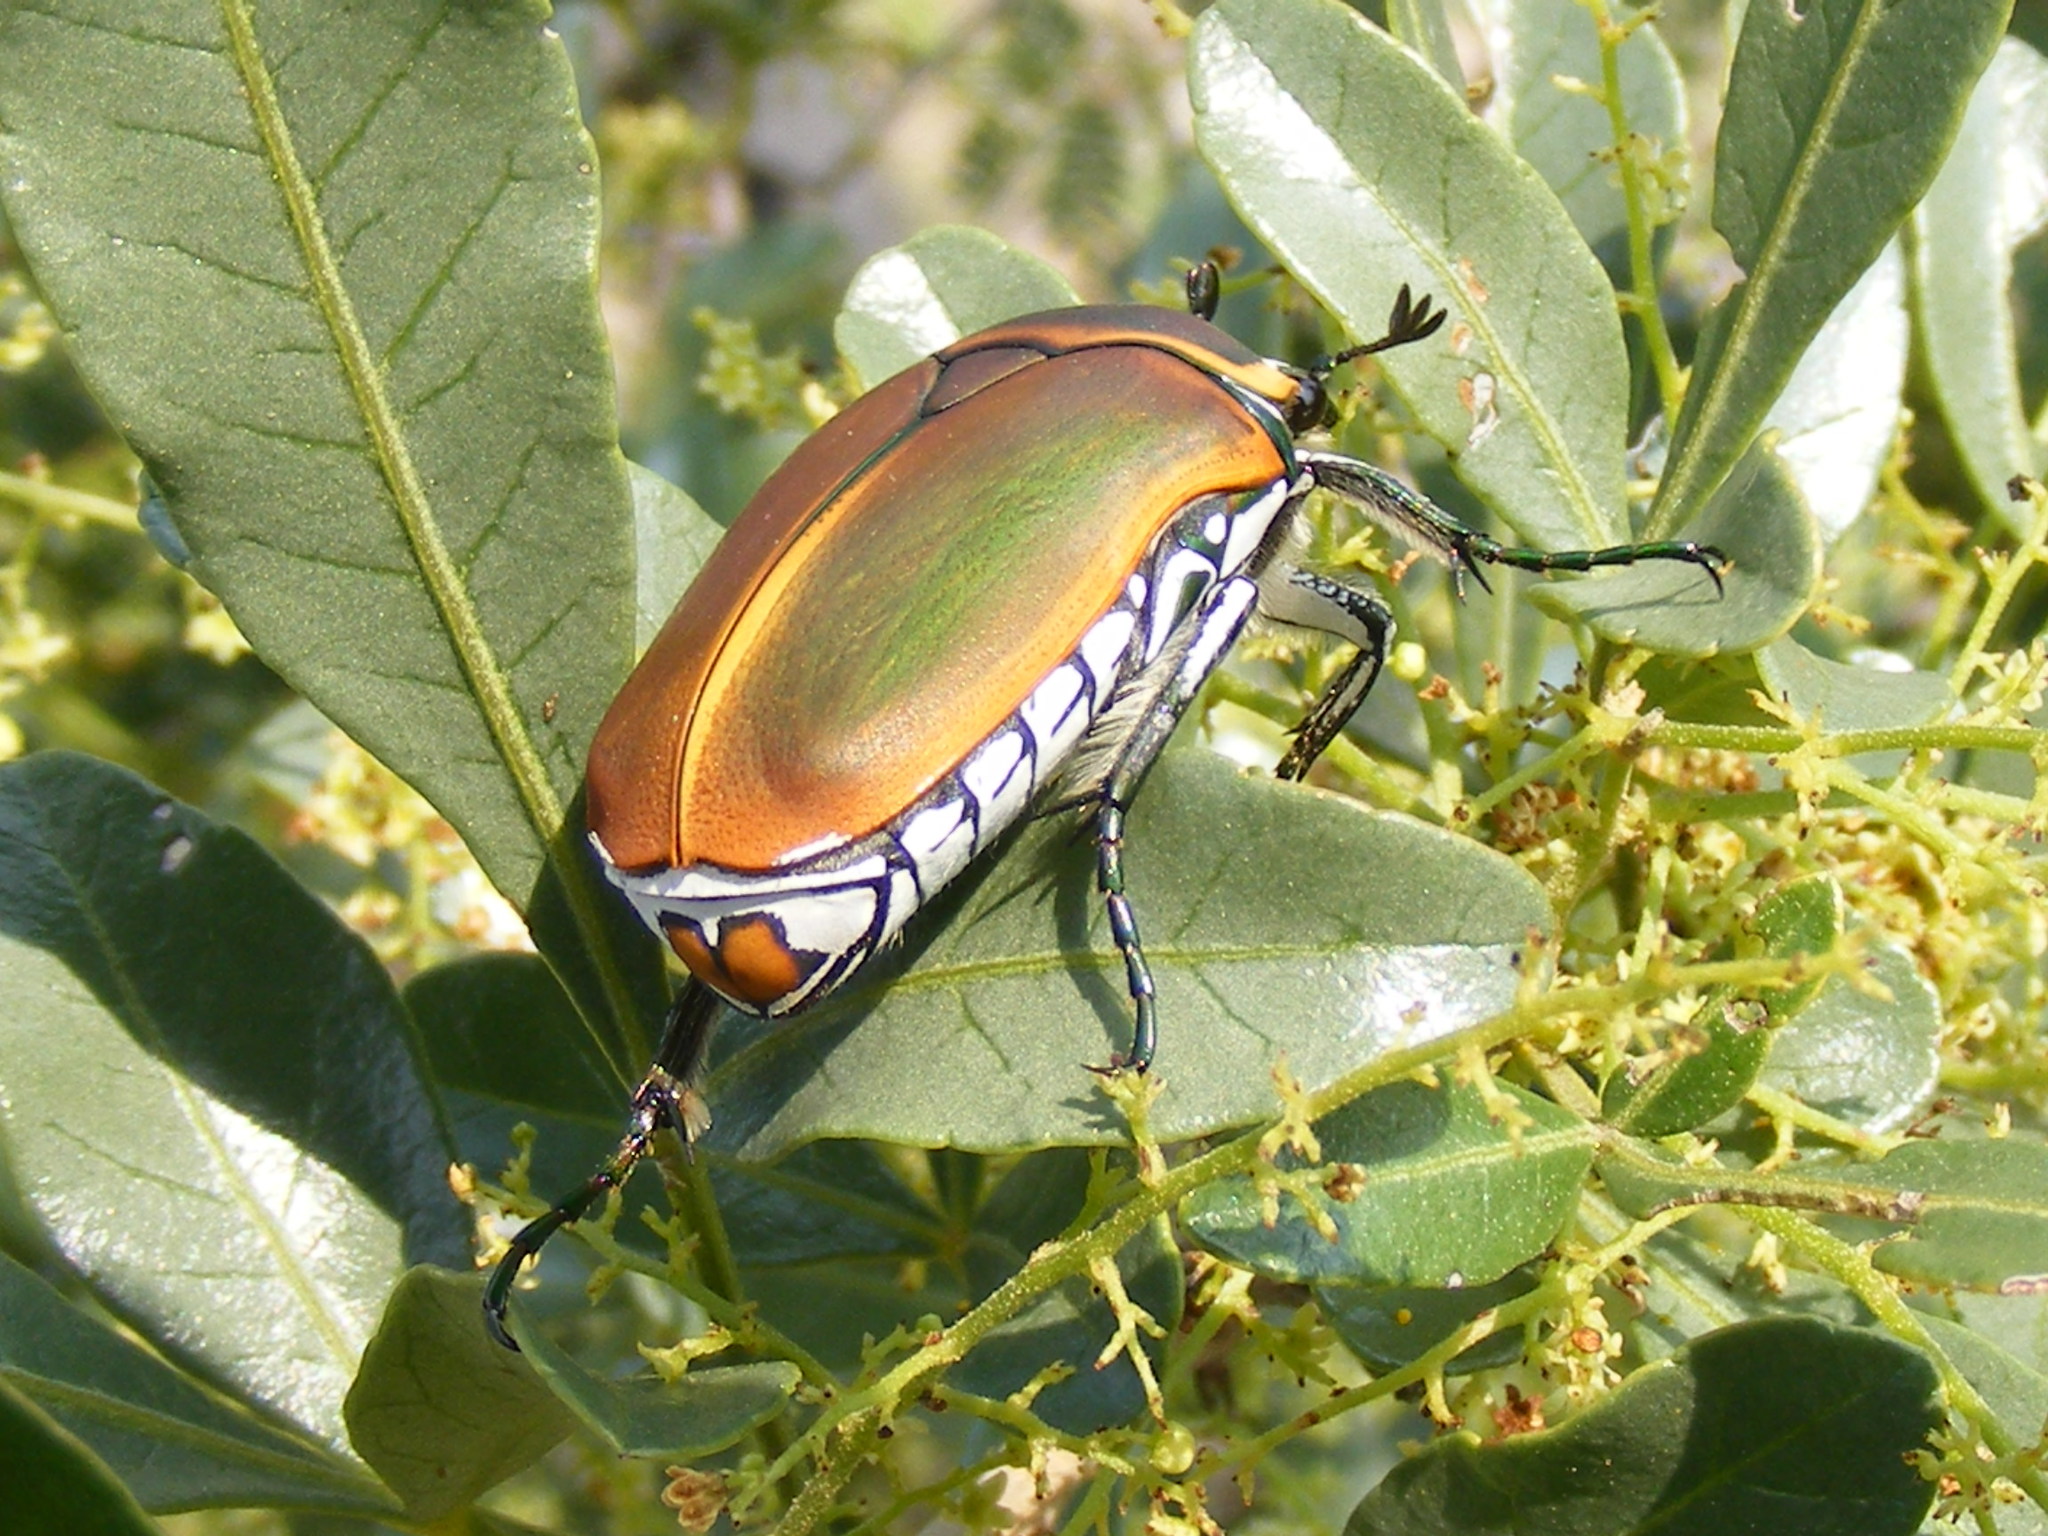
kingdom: Animalia
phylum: Arthropoda
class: Insecta
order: Coleoptera
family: Scarabaeidae
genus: Dischista
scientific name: Dischista cincta
